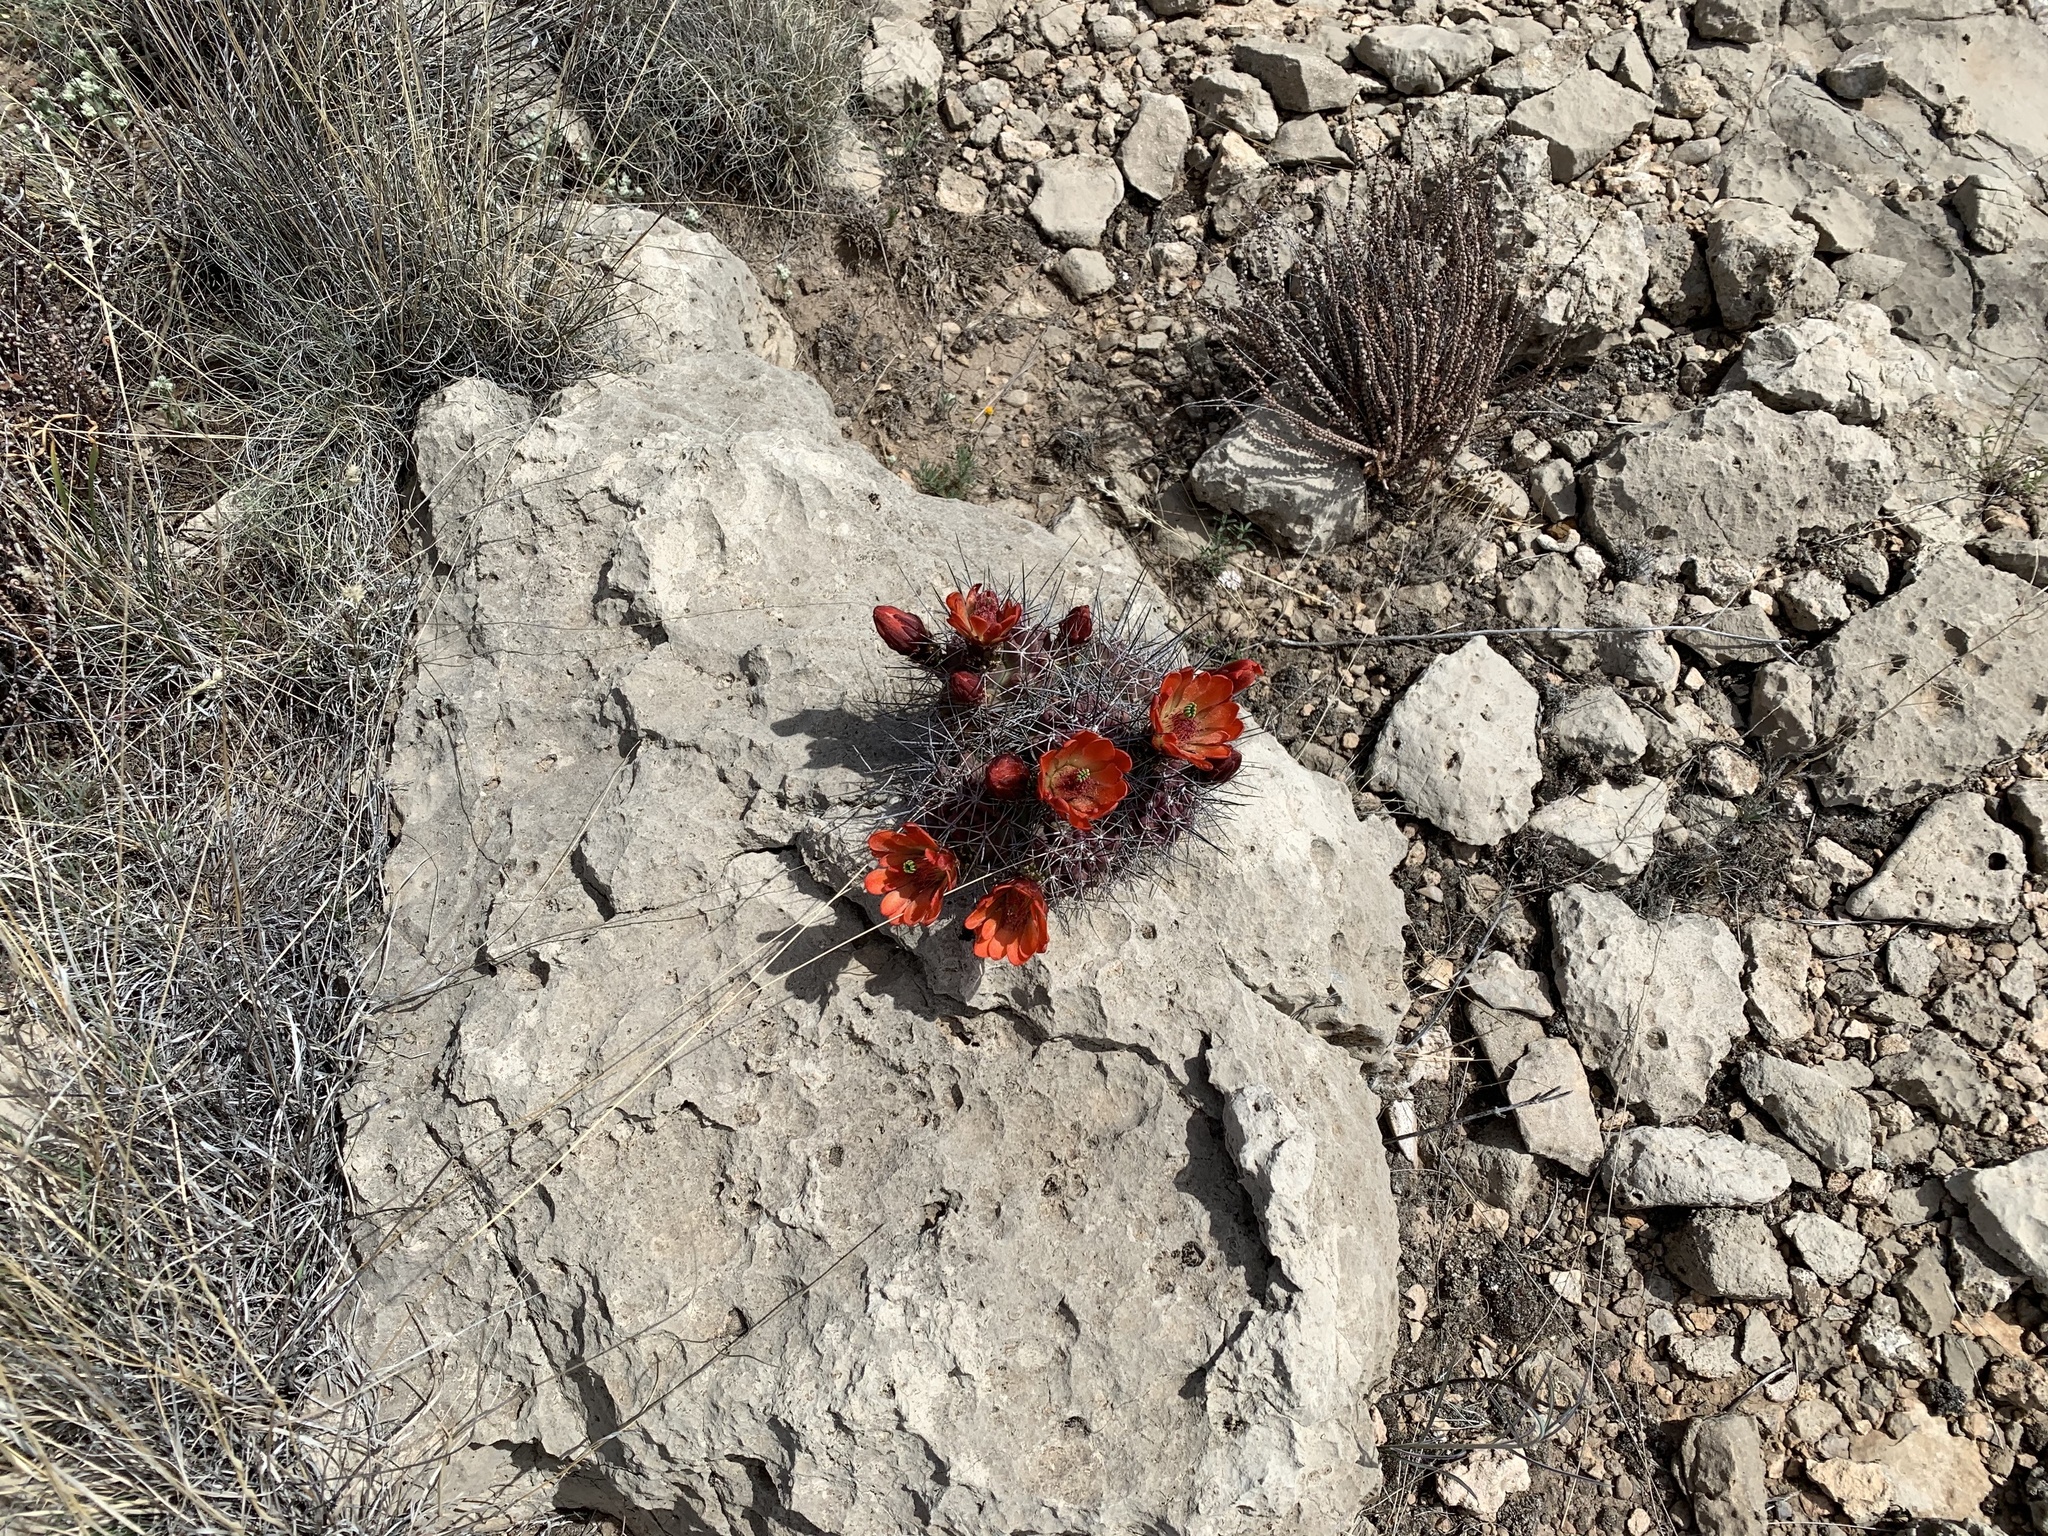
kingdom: Plantae
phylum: Tracheophyta
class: Magnoliopsida
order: Caryophyllales
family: Cactaceae
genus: Echinocereus
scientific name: Echinocereus coccineus
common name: Scarlet hedgehog cactus
